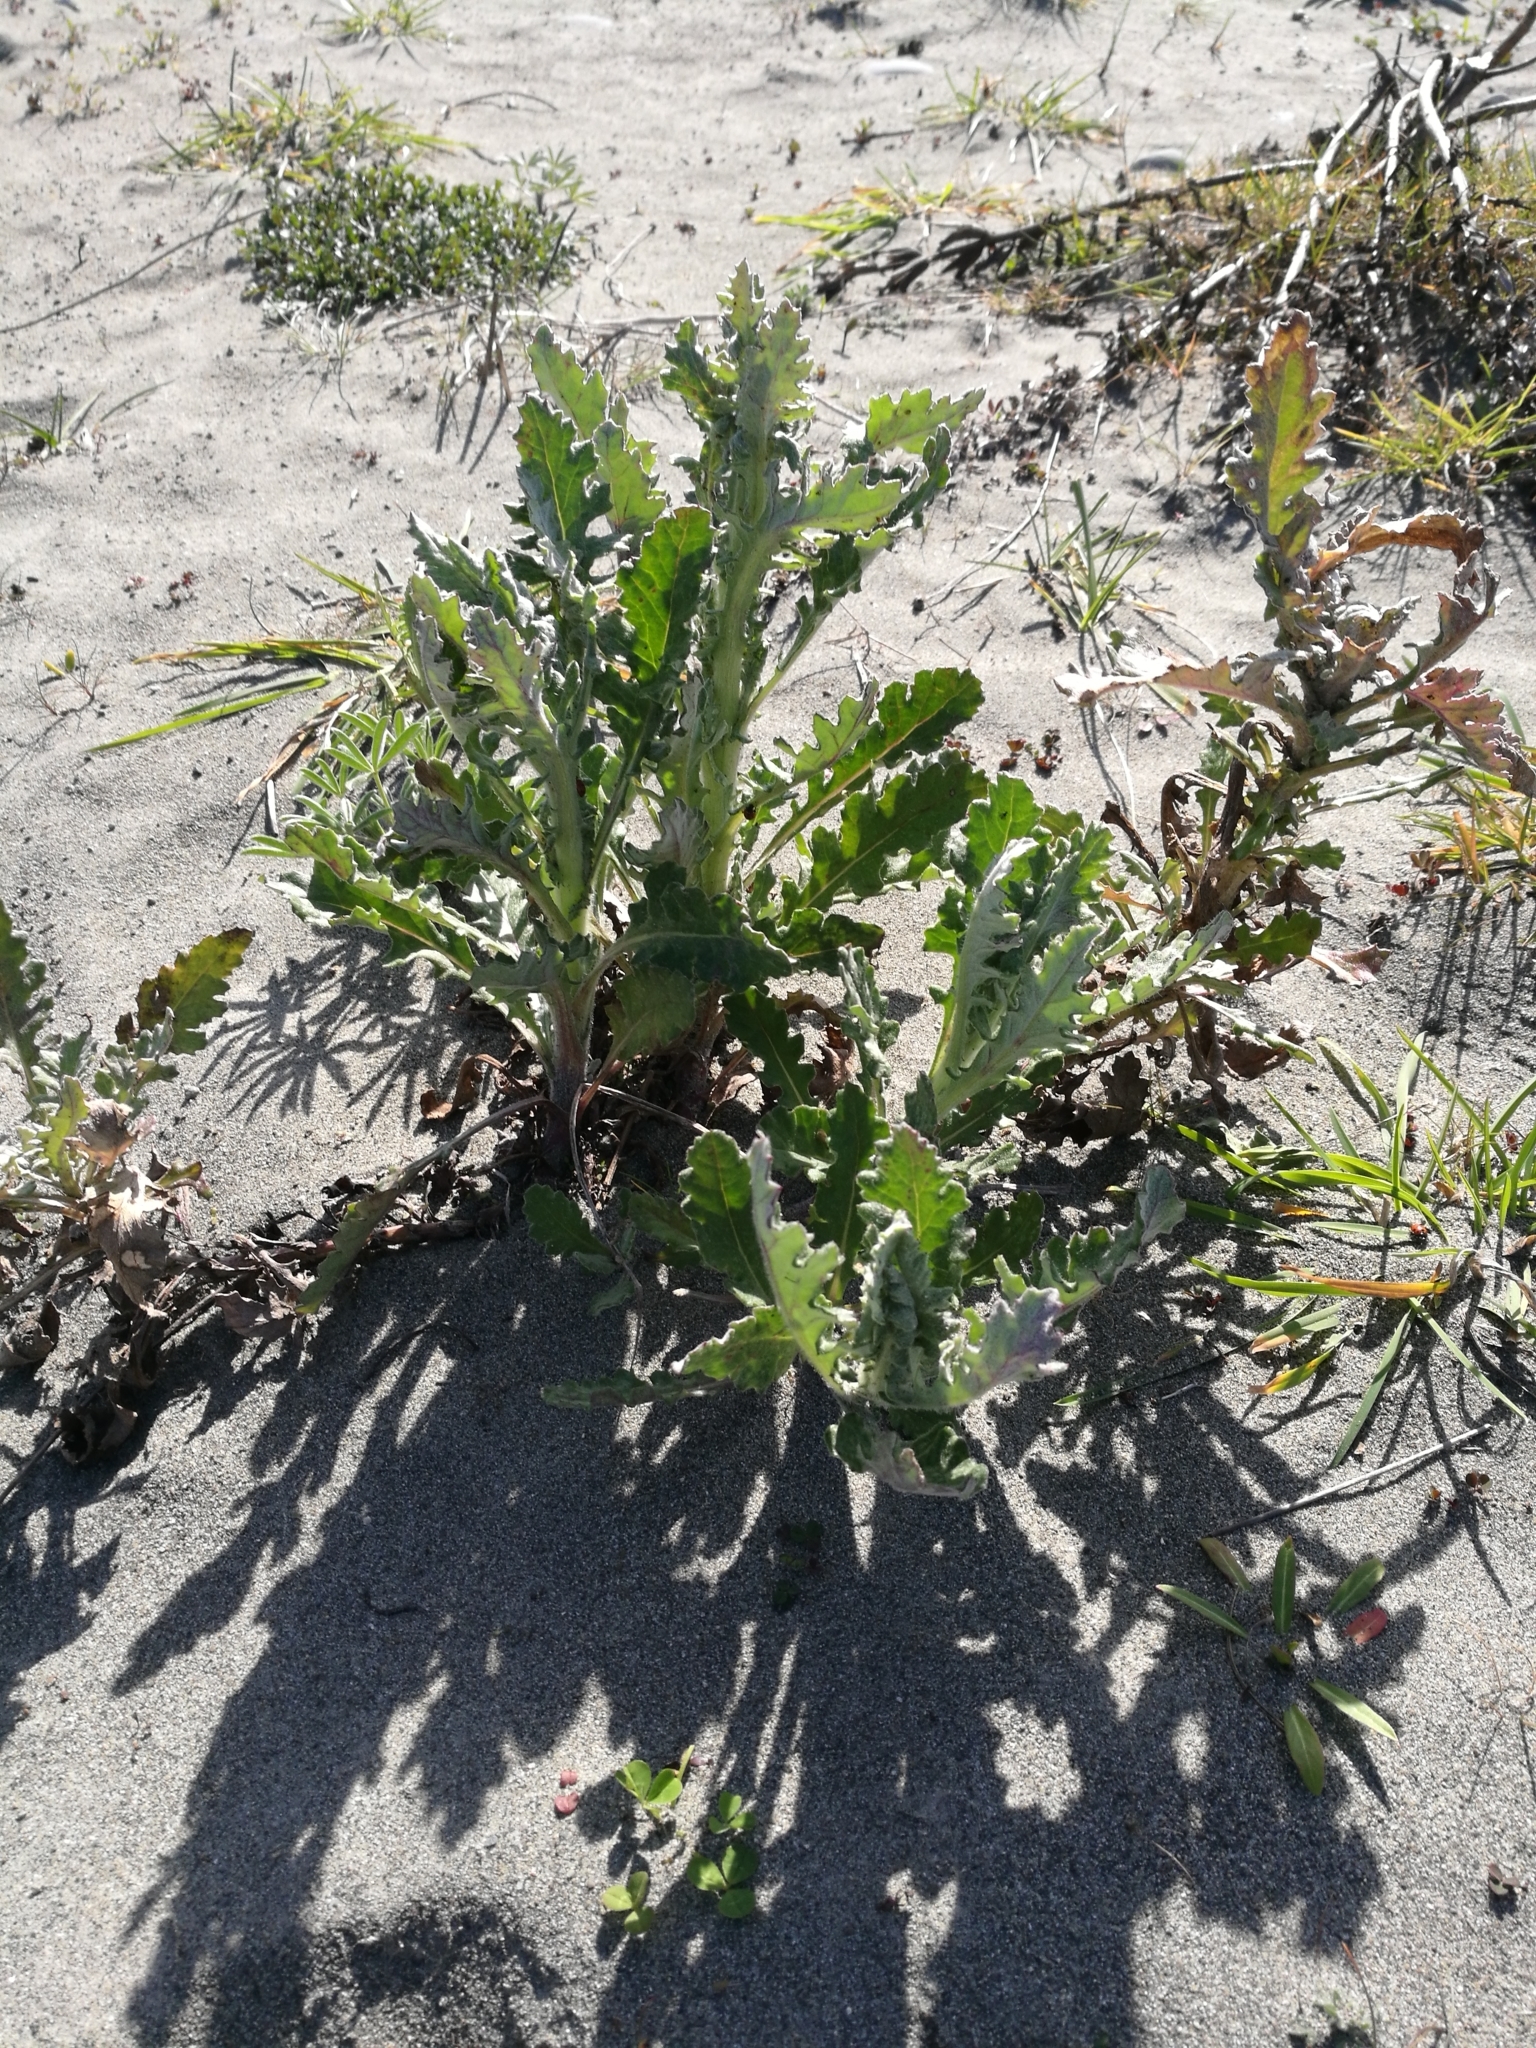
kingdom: Plantae
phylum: Tracheophyta
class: Magnoliopsida
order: Asterales
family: Asteraceae
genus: Senecio
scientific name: Senecio glomeratus
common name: Cutleaf burnweed
